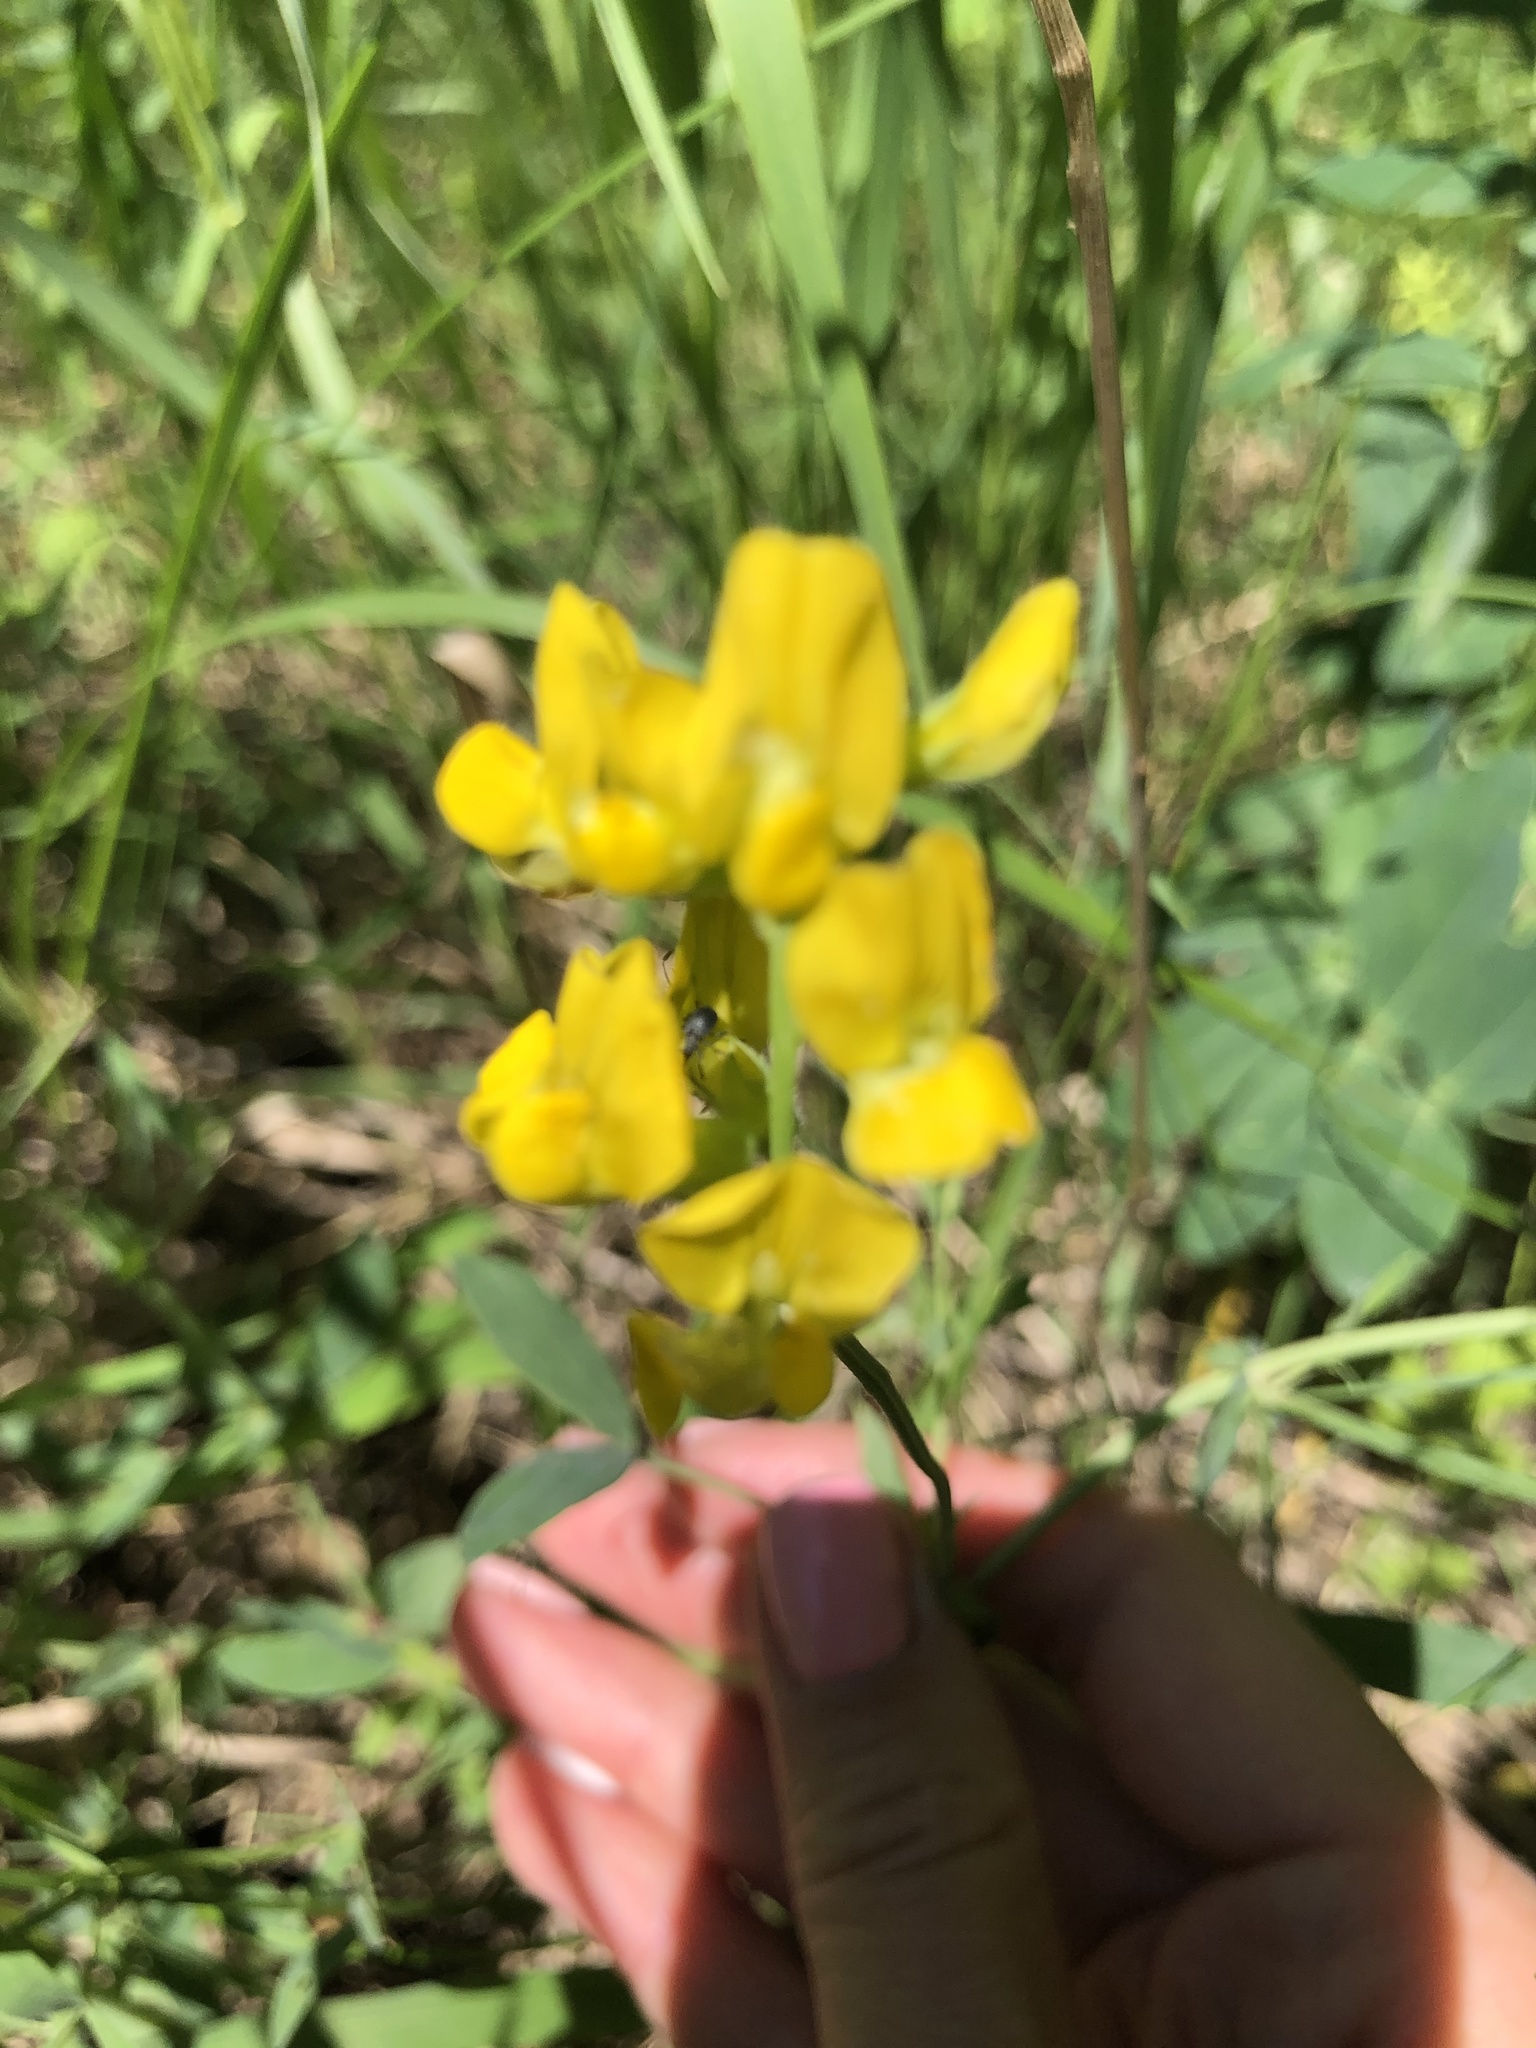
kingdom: Plantae
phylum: Tracheophyta
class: Magnoliopsida
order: Fabales
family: Fabaceae
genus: Lathyrus
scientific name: Lathyrus pratensis
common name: Meadow vetchling
